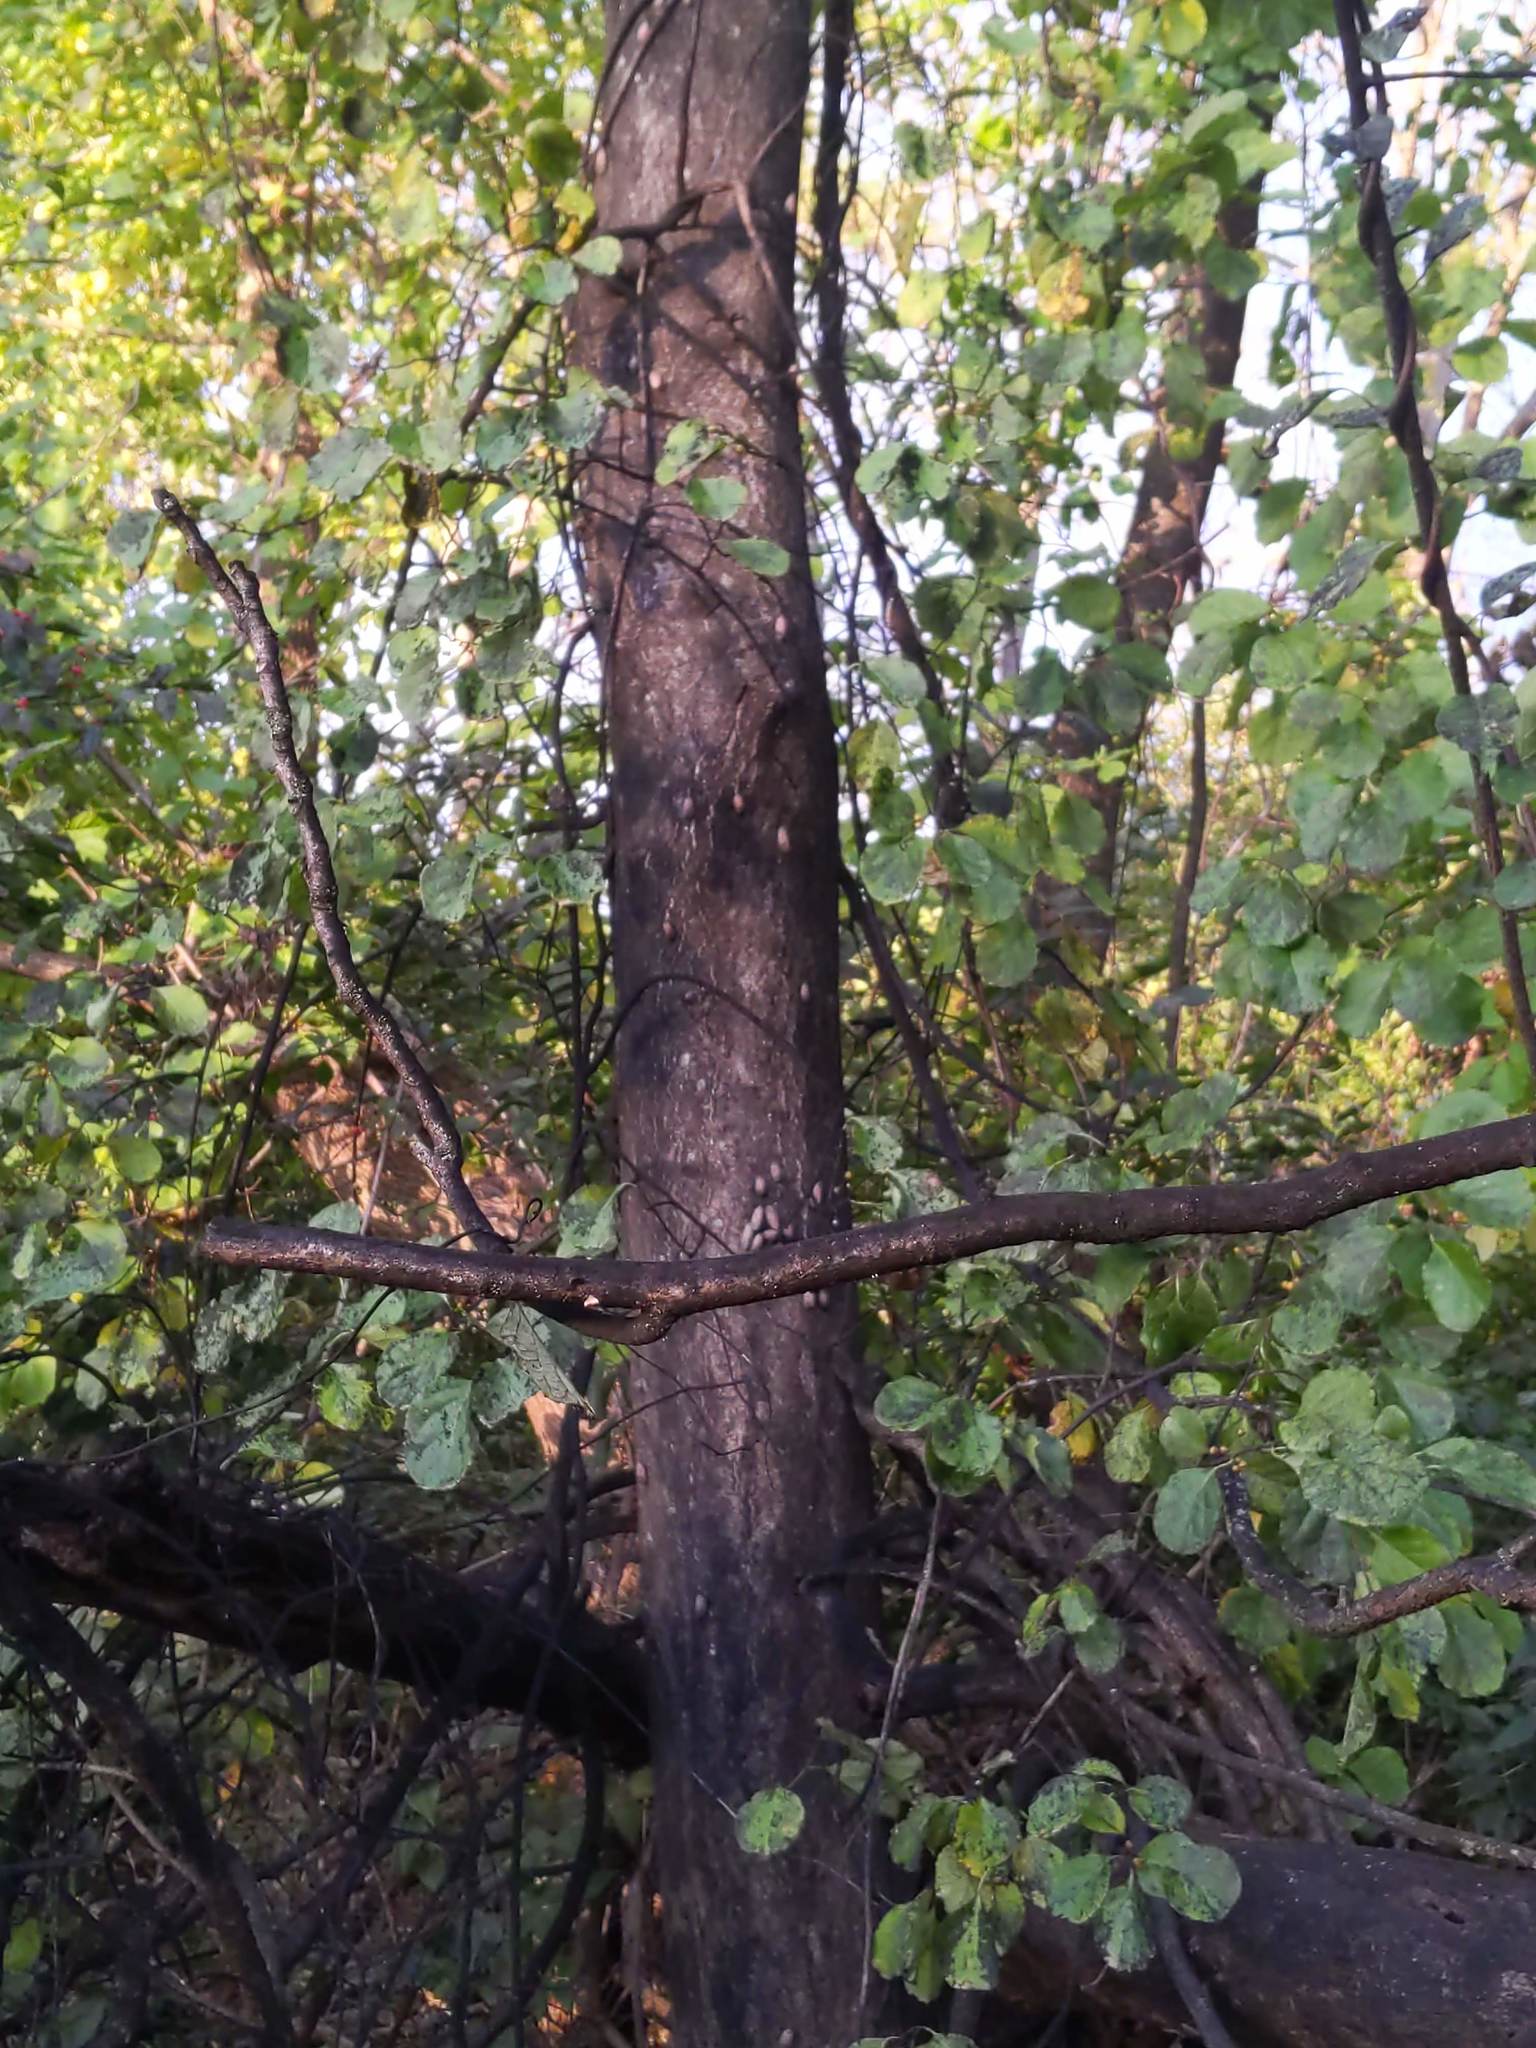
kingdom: Animalia
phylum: Arthropoda
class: Insecta
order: Hemiptera
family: Fulgoridae
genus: Lycorma
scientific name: Lycorma delicatula
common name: Spotted lanternfly
